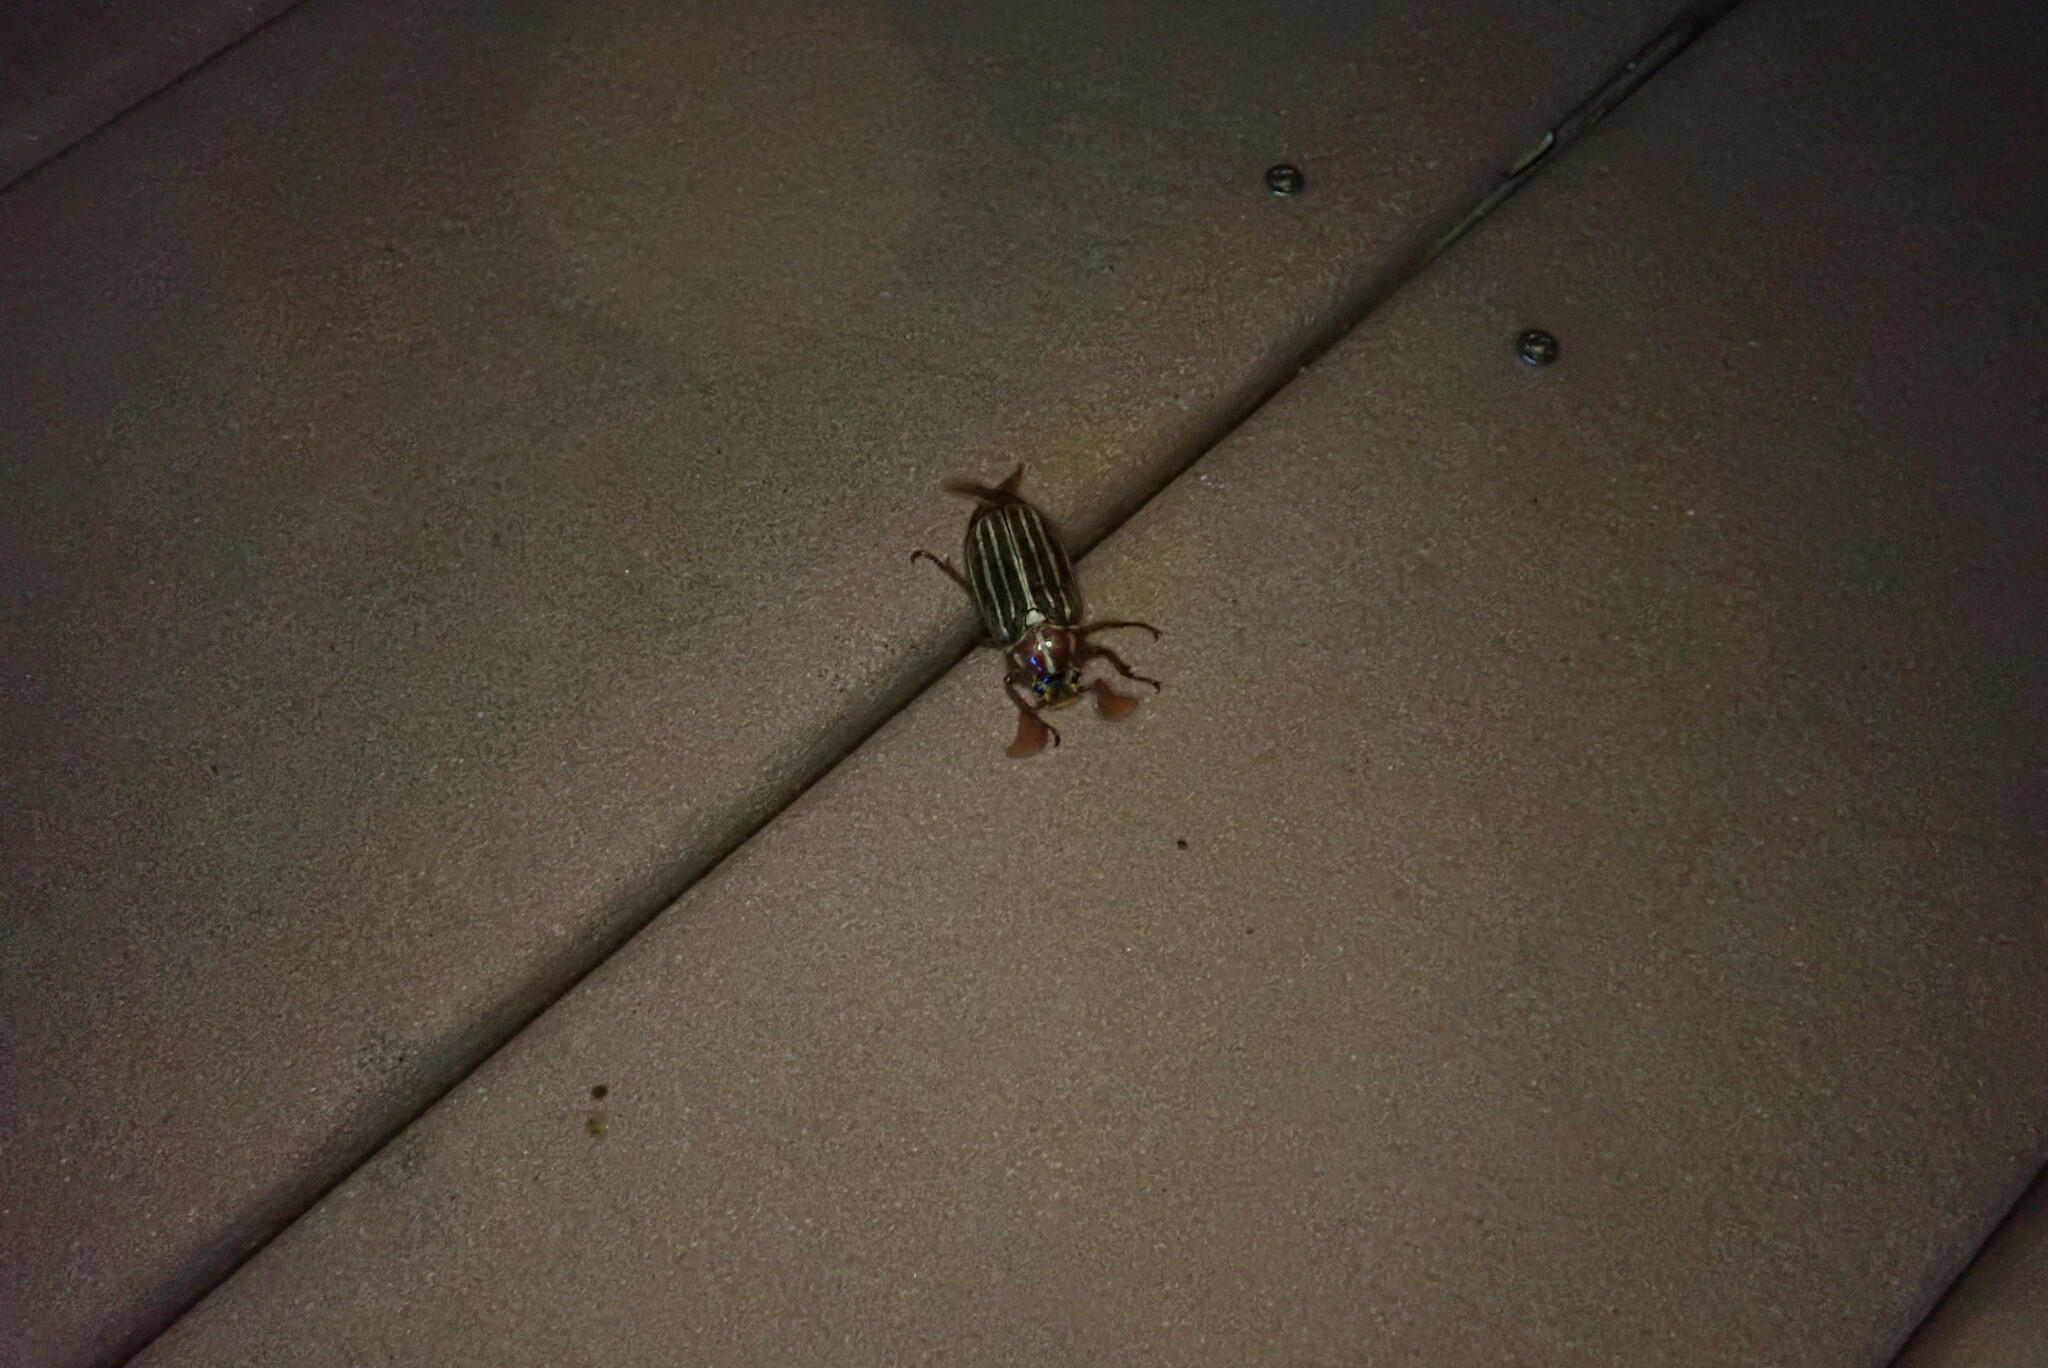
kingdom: Animalia
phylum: Arthropoda
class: Insecta
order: Coleoptera
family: Scarabaeidae
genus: Polyphylla
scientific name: Polyphylla decemlineata
